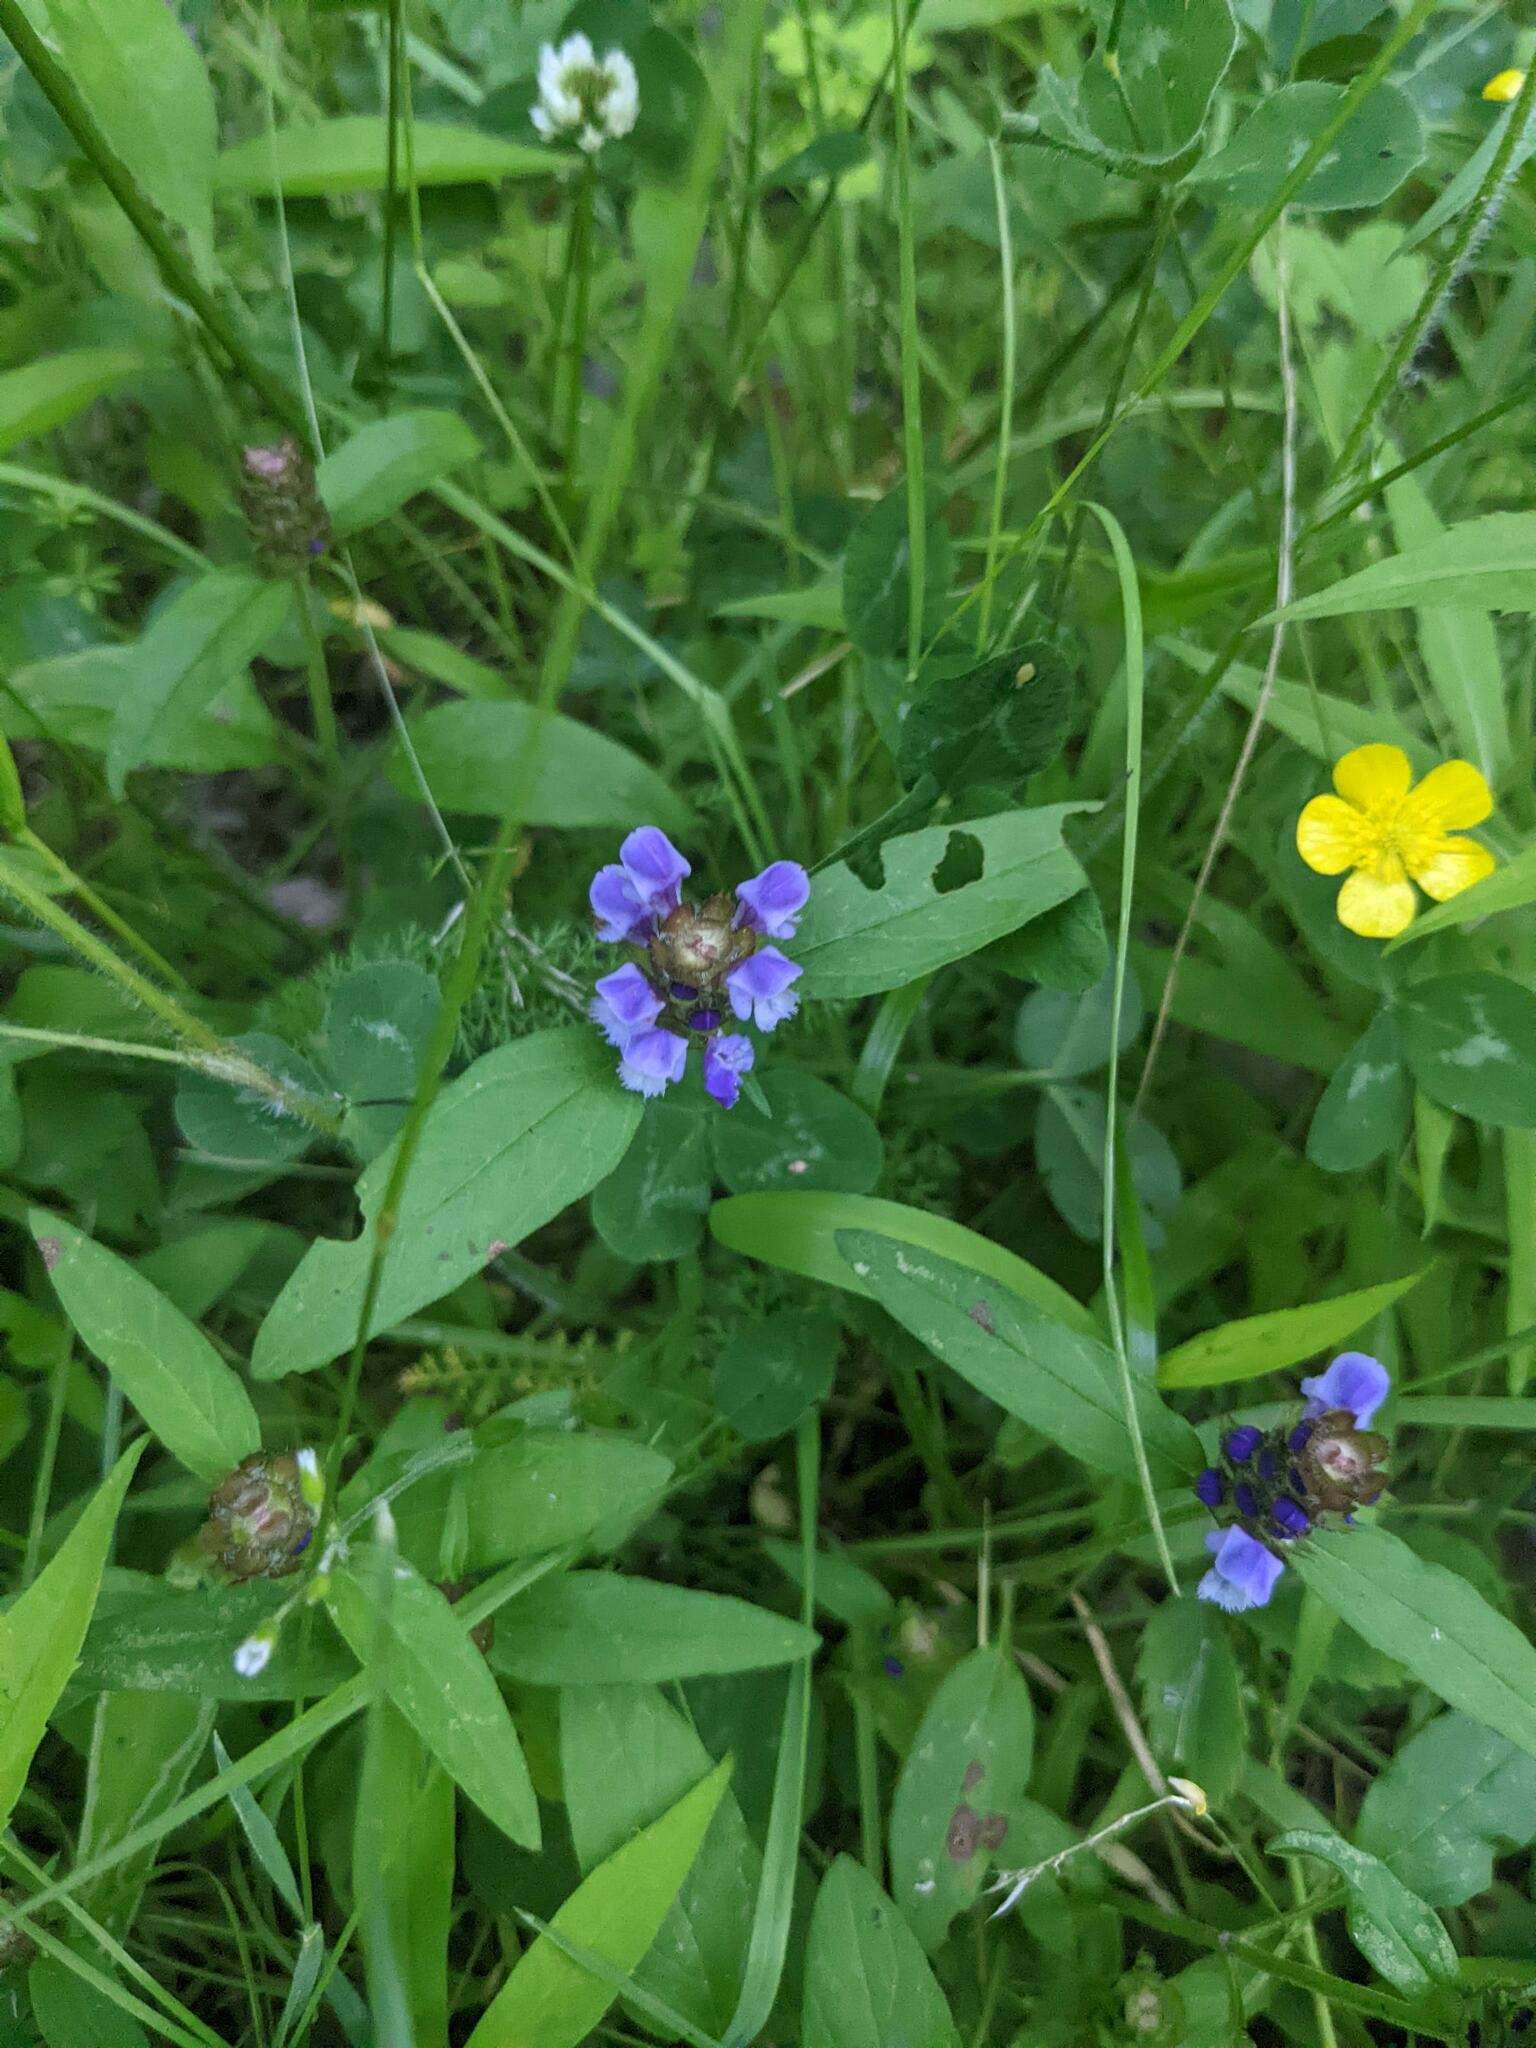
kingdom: Plantae
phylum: Tracheophyta
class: Magnoliopsida
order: Lamiales
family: Lamiaceae
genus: Prunella
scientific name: Prunella vulgaris
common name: Heal-all
